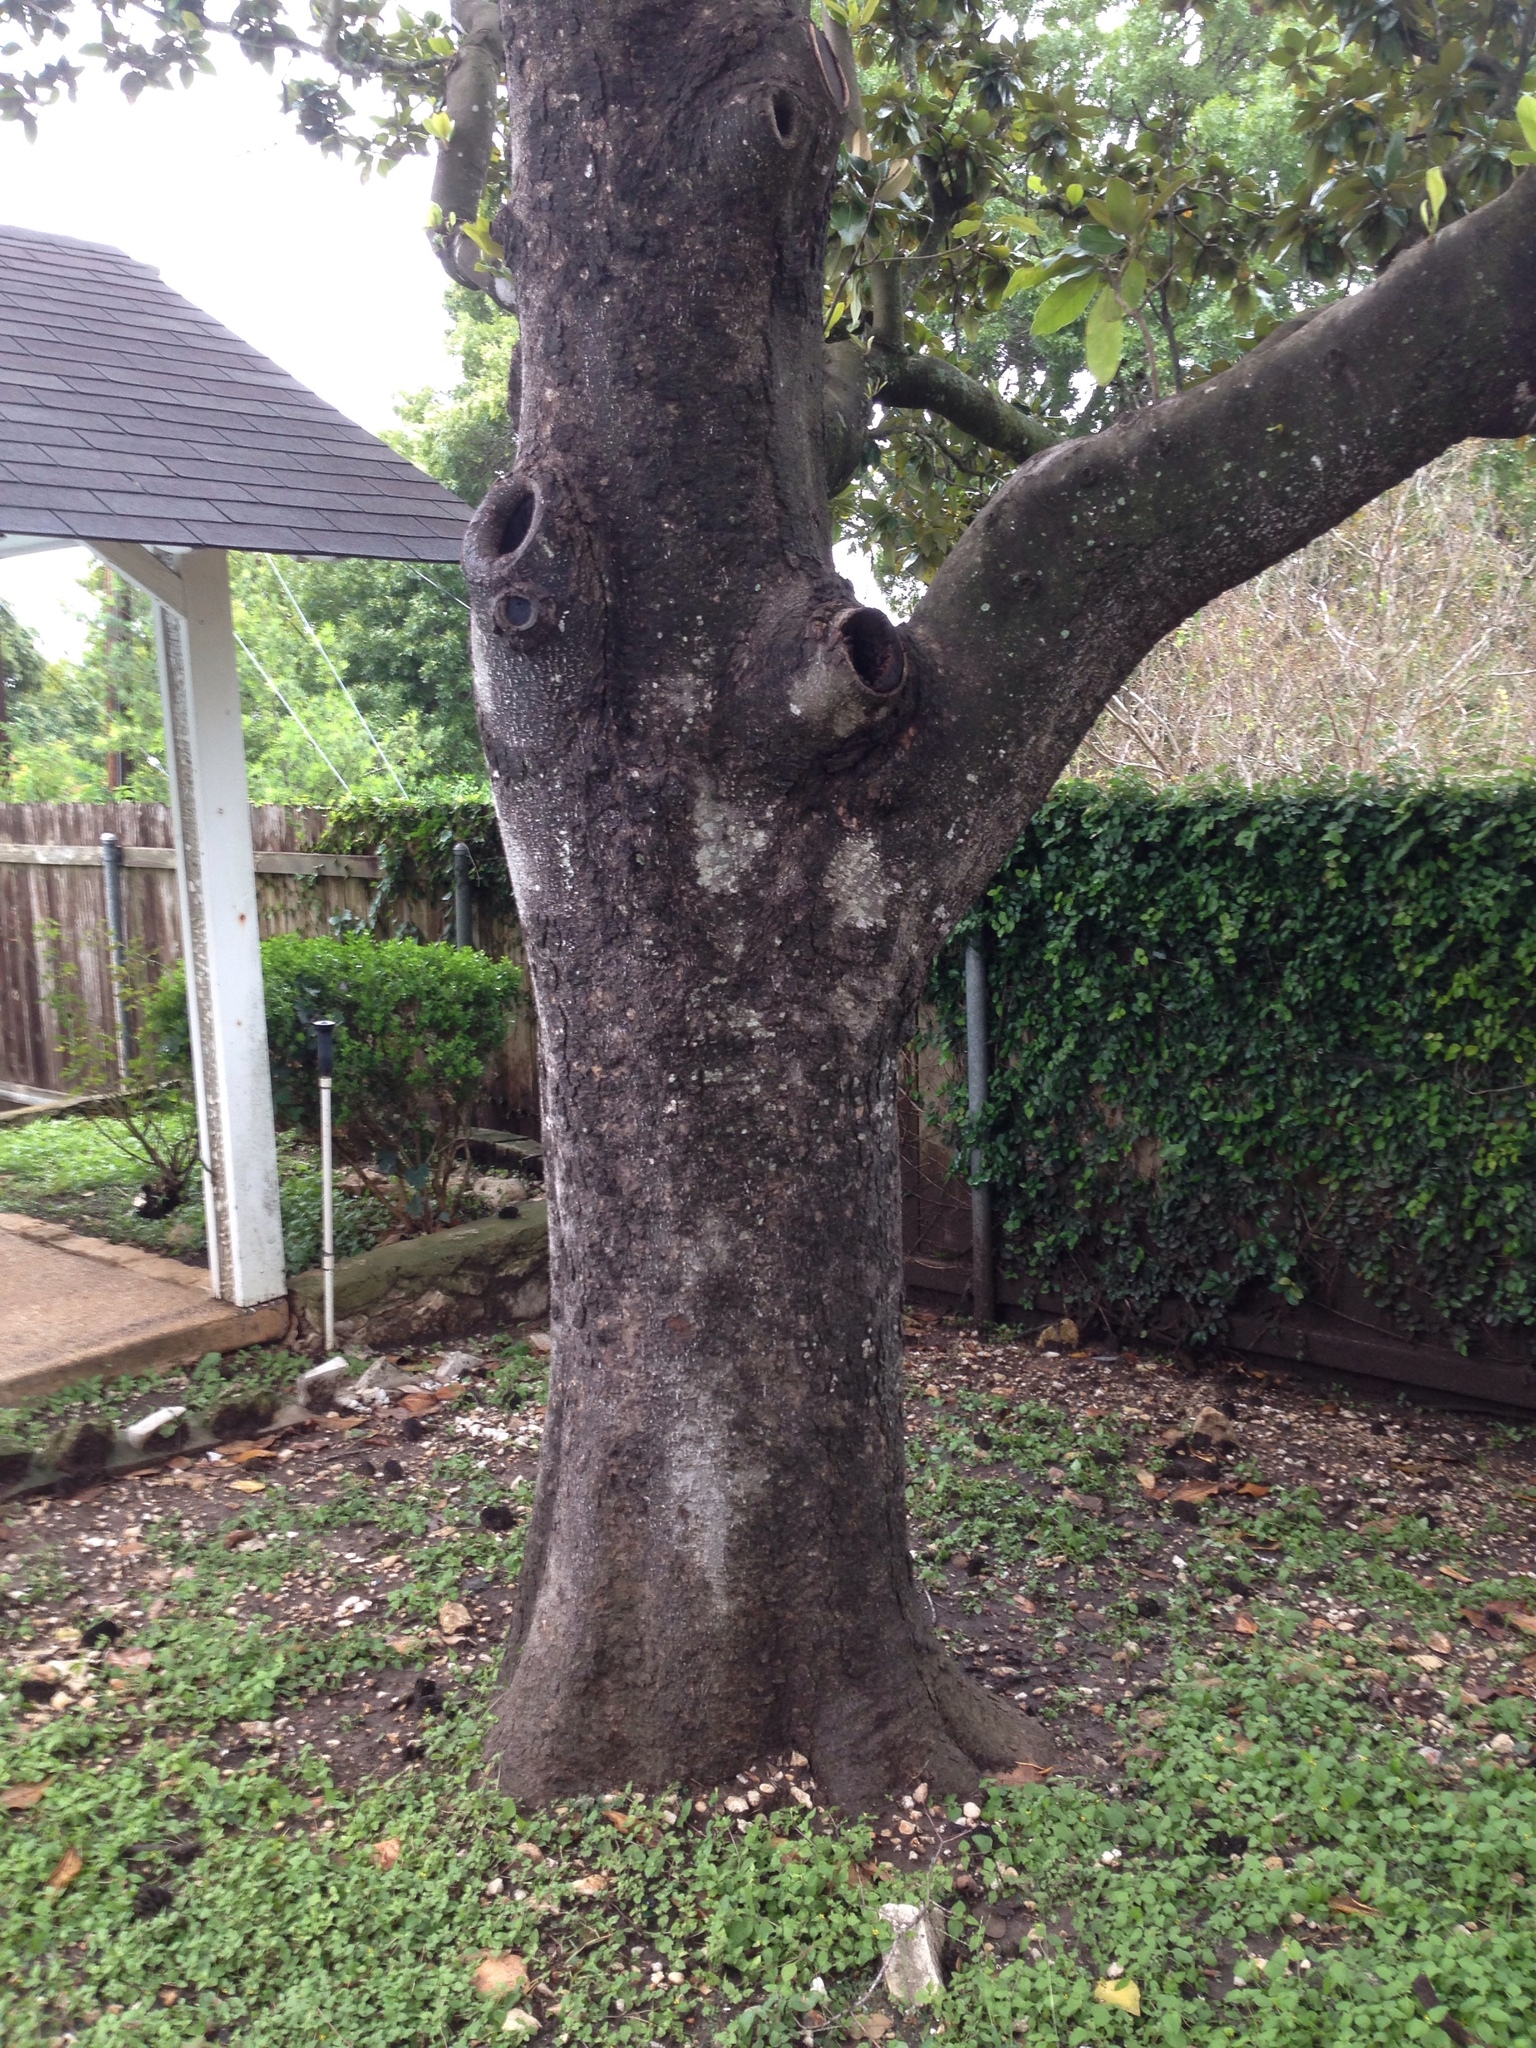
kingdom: Plantae
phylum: Tracheophyta
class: Magnoliopsida
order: Magnoliales
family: Magnoliaceae
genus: Magnolia
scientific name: Magnolia grandiflora
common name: Southern magnolia
